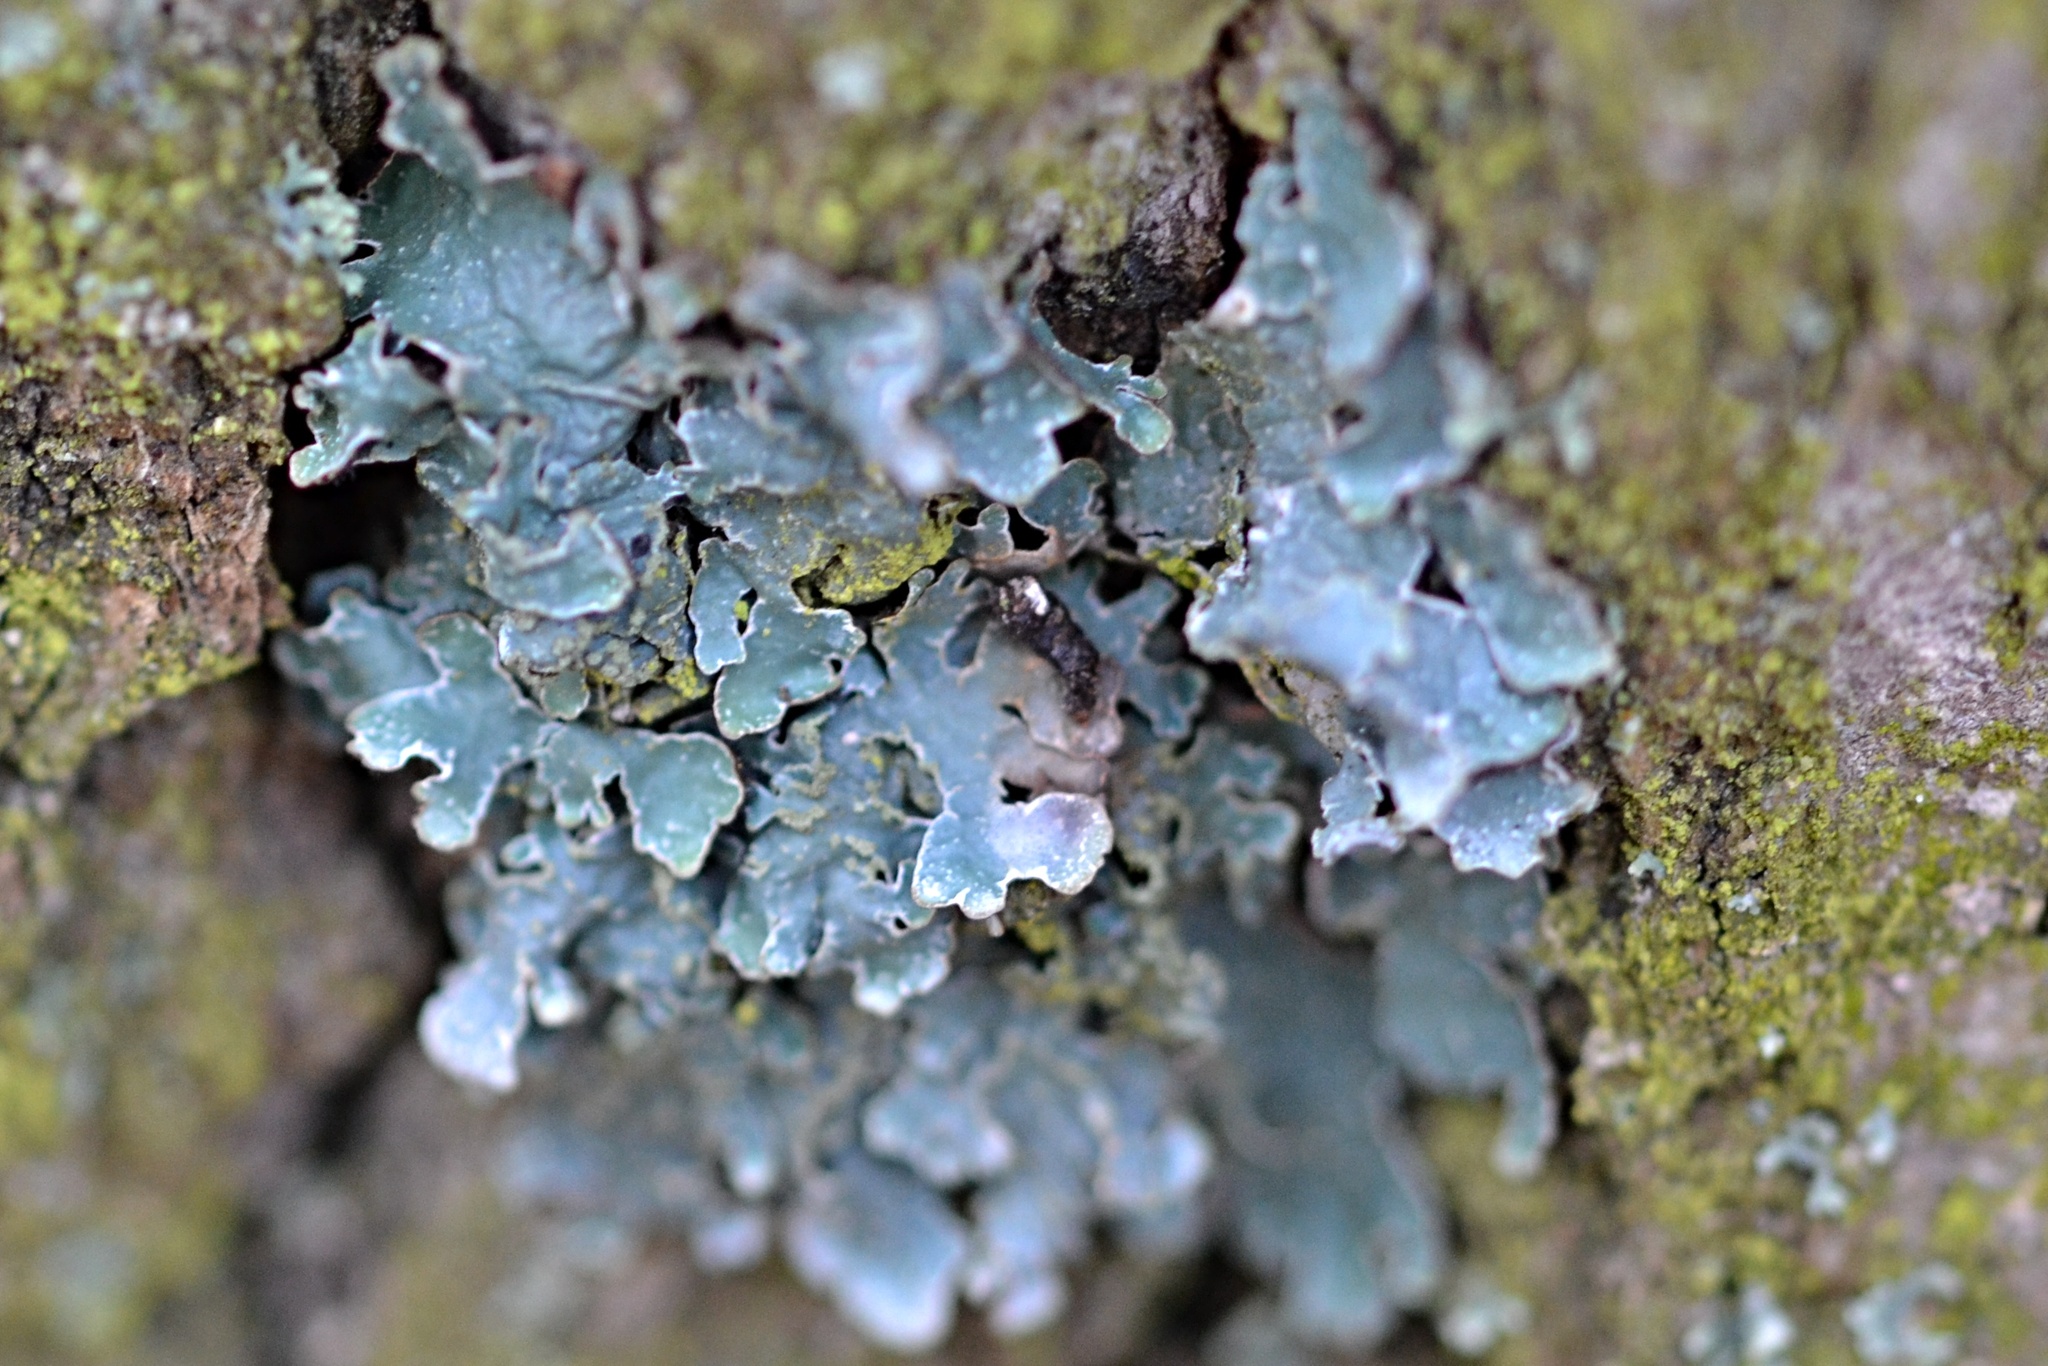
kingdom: Fungi
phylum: Ascomycota
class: Lecanoromycetes
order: Lecanorales
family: Parmeliaceae
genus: Parmelia
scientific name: Parmelia sulcata
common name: Netted shield lichen
